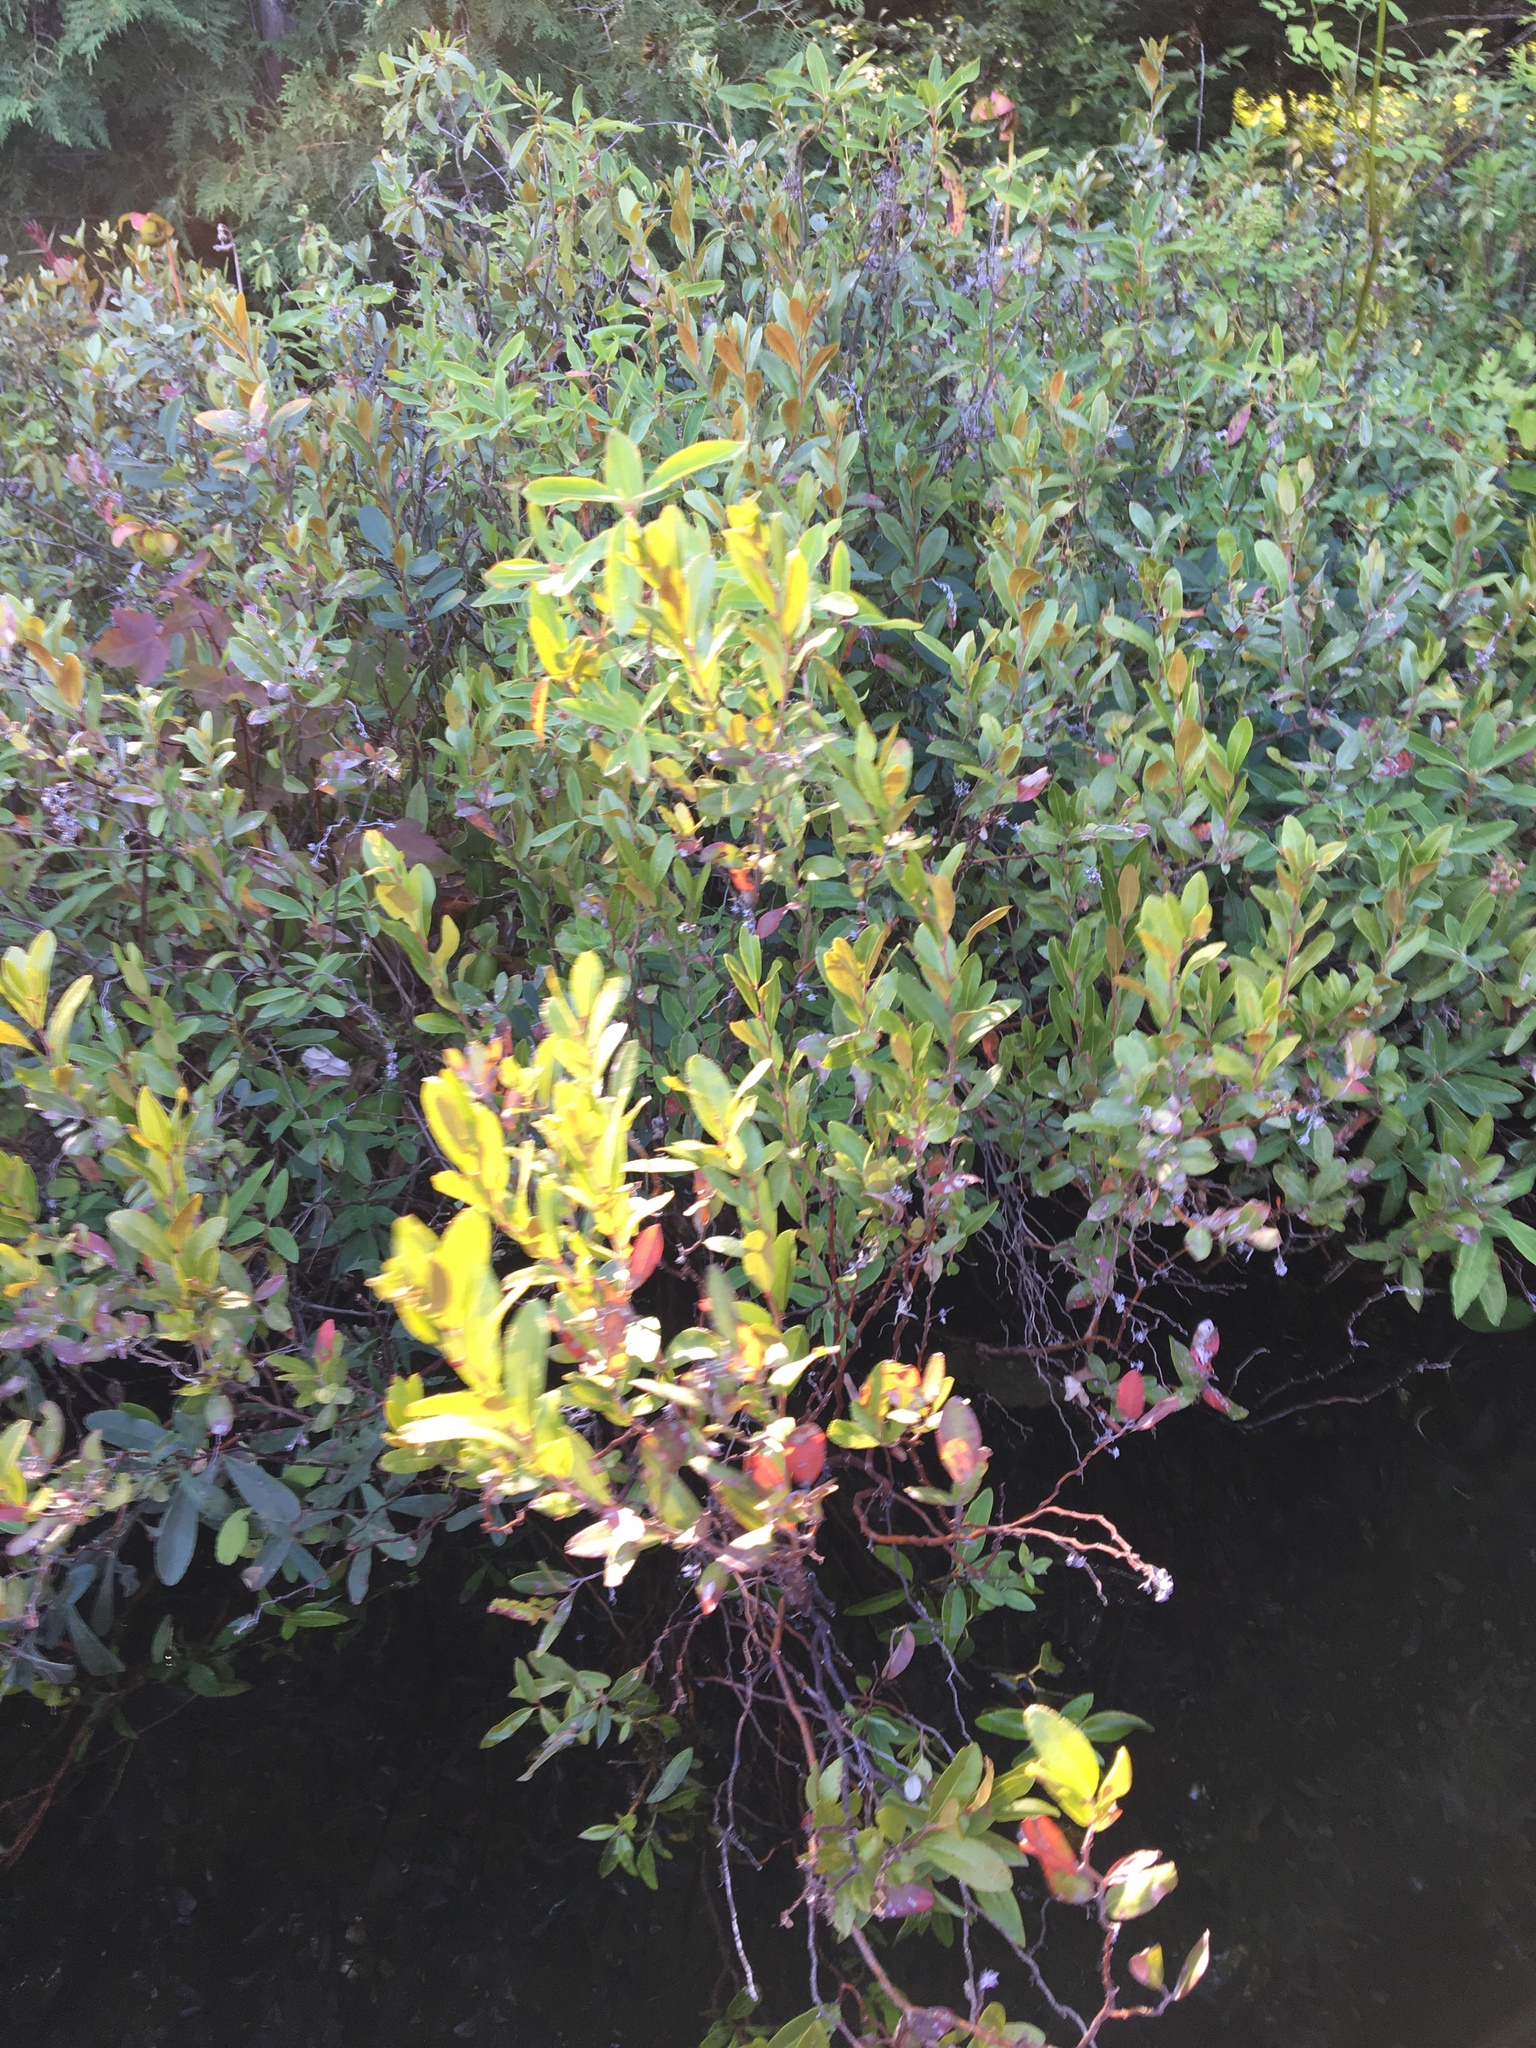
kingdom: Plantae
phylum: Tracheophyta
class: Magnoliopsida
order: Ericales
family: Ericaceae
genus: Chamaedaphne
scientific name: Chamaedaphne calyculata
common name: Leatherleaf
